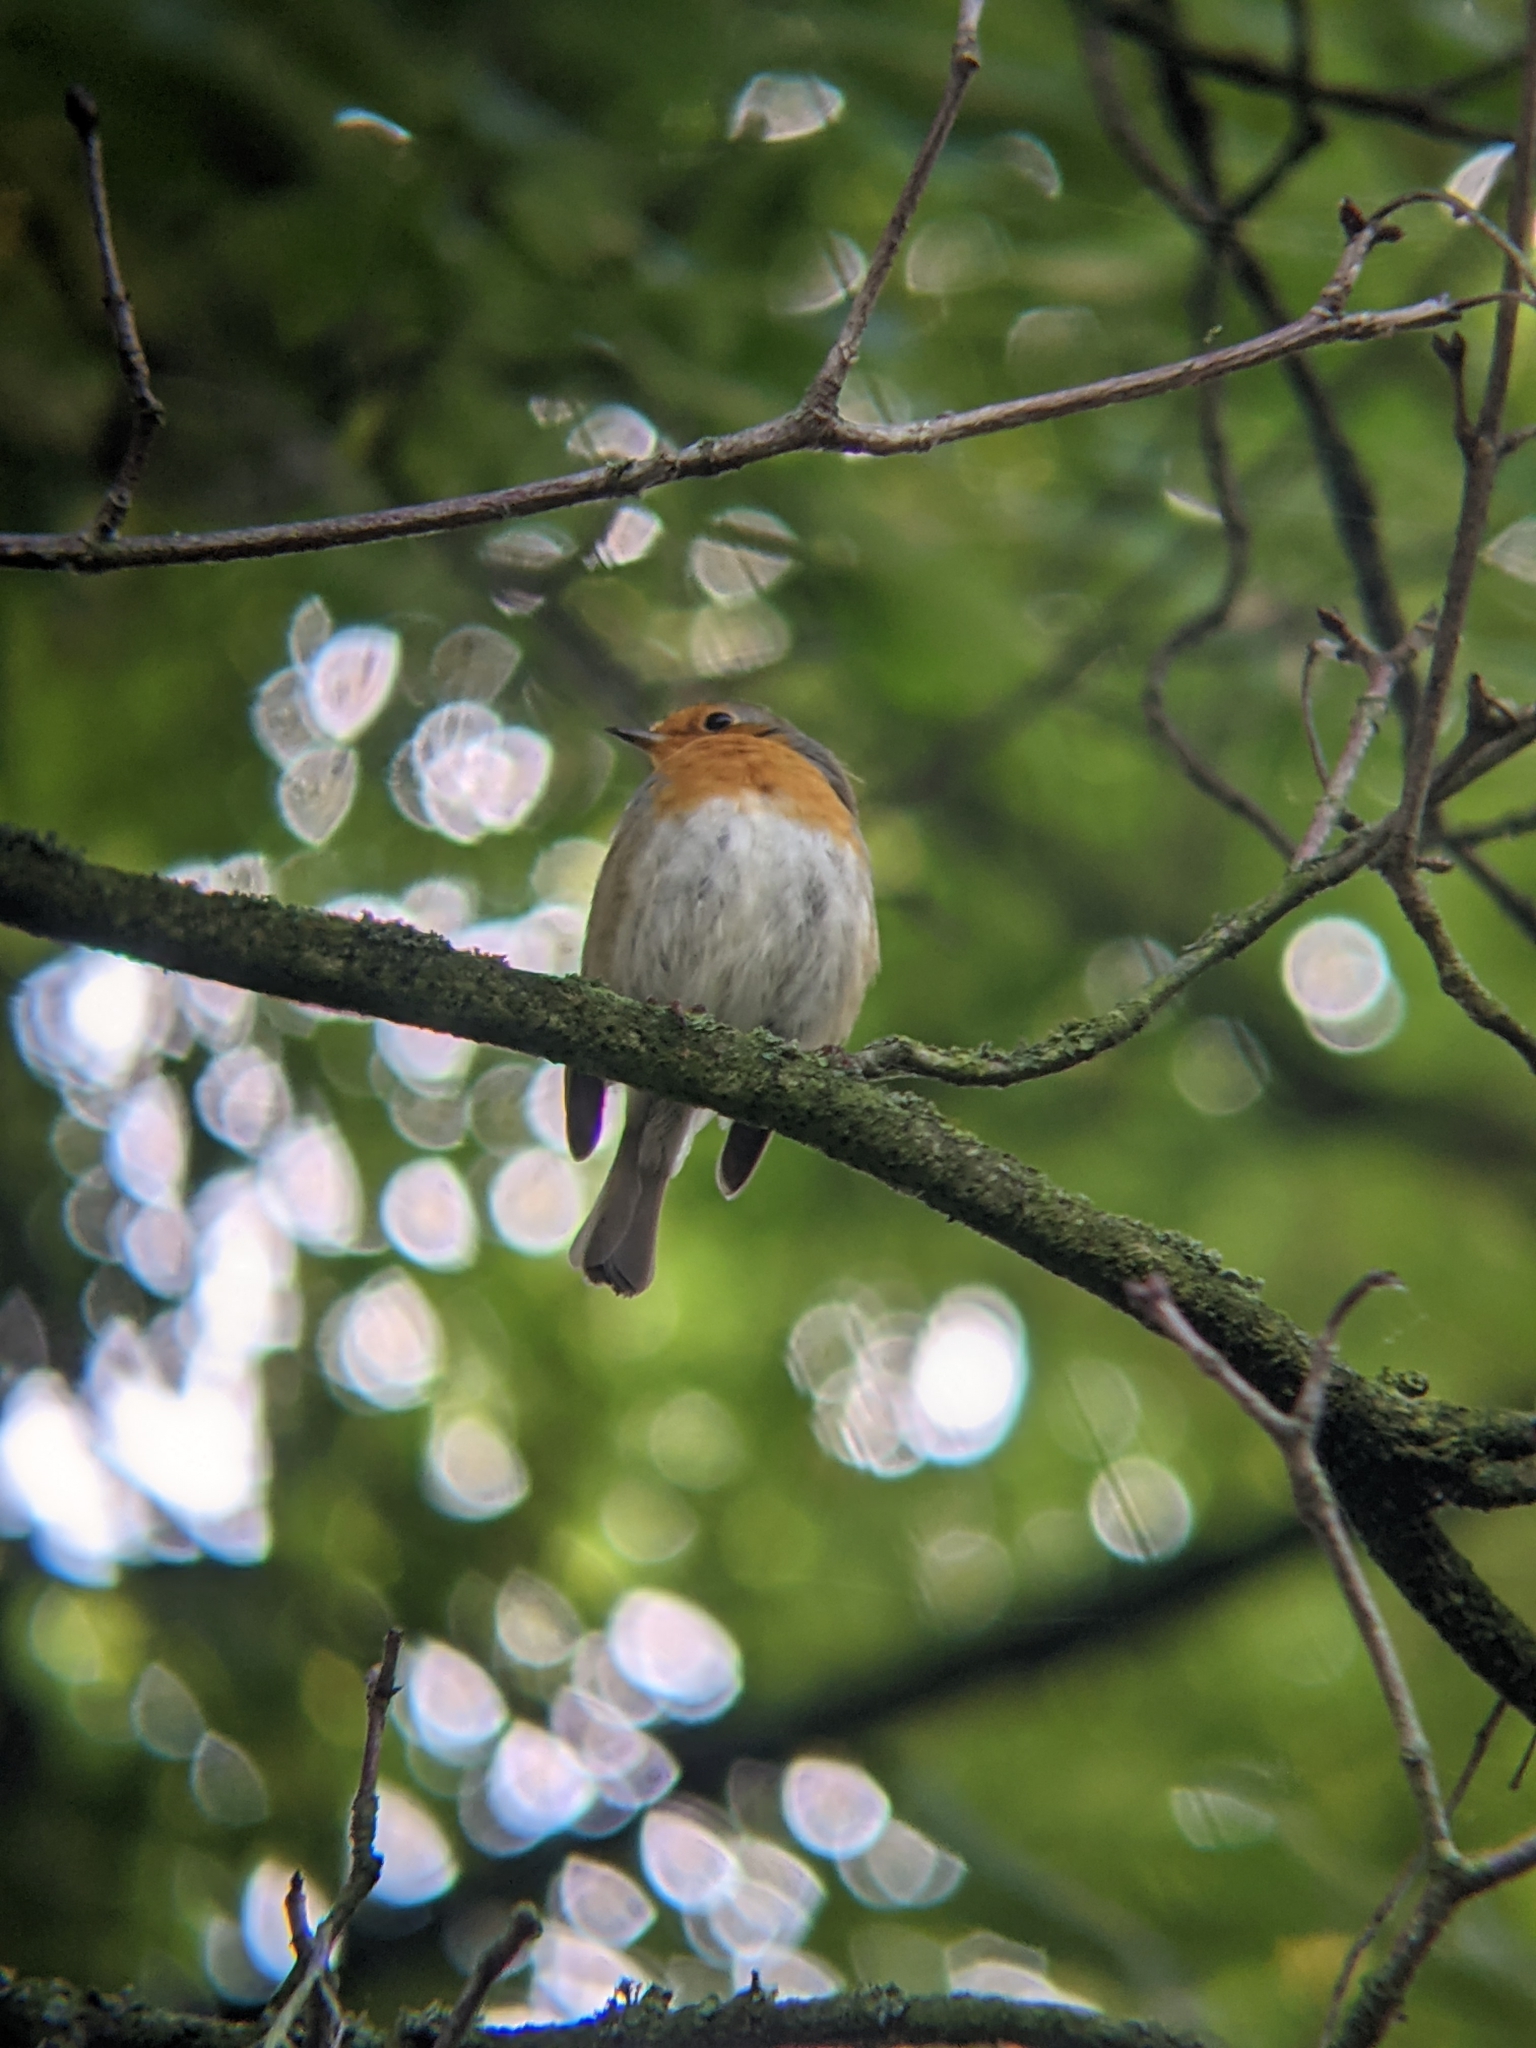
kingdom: Animalia
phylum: Chordata
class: Aves
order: Passeriformes
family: Muscicapidae
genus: Erithacus
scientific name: Erithacus rubecula
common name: European robin
